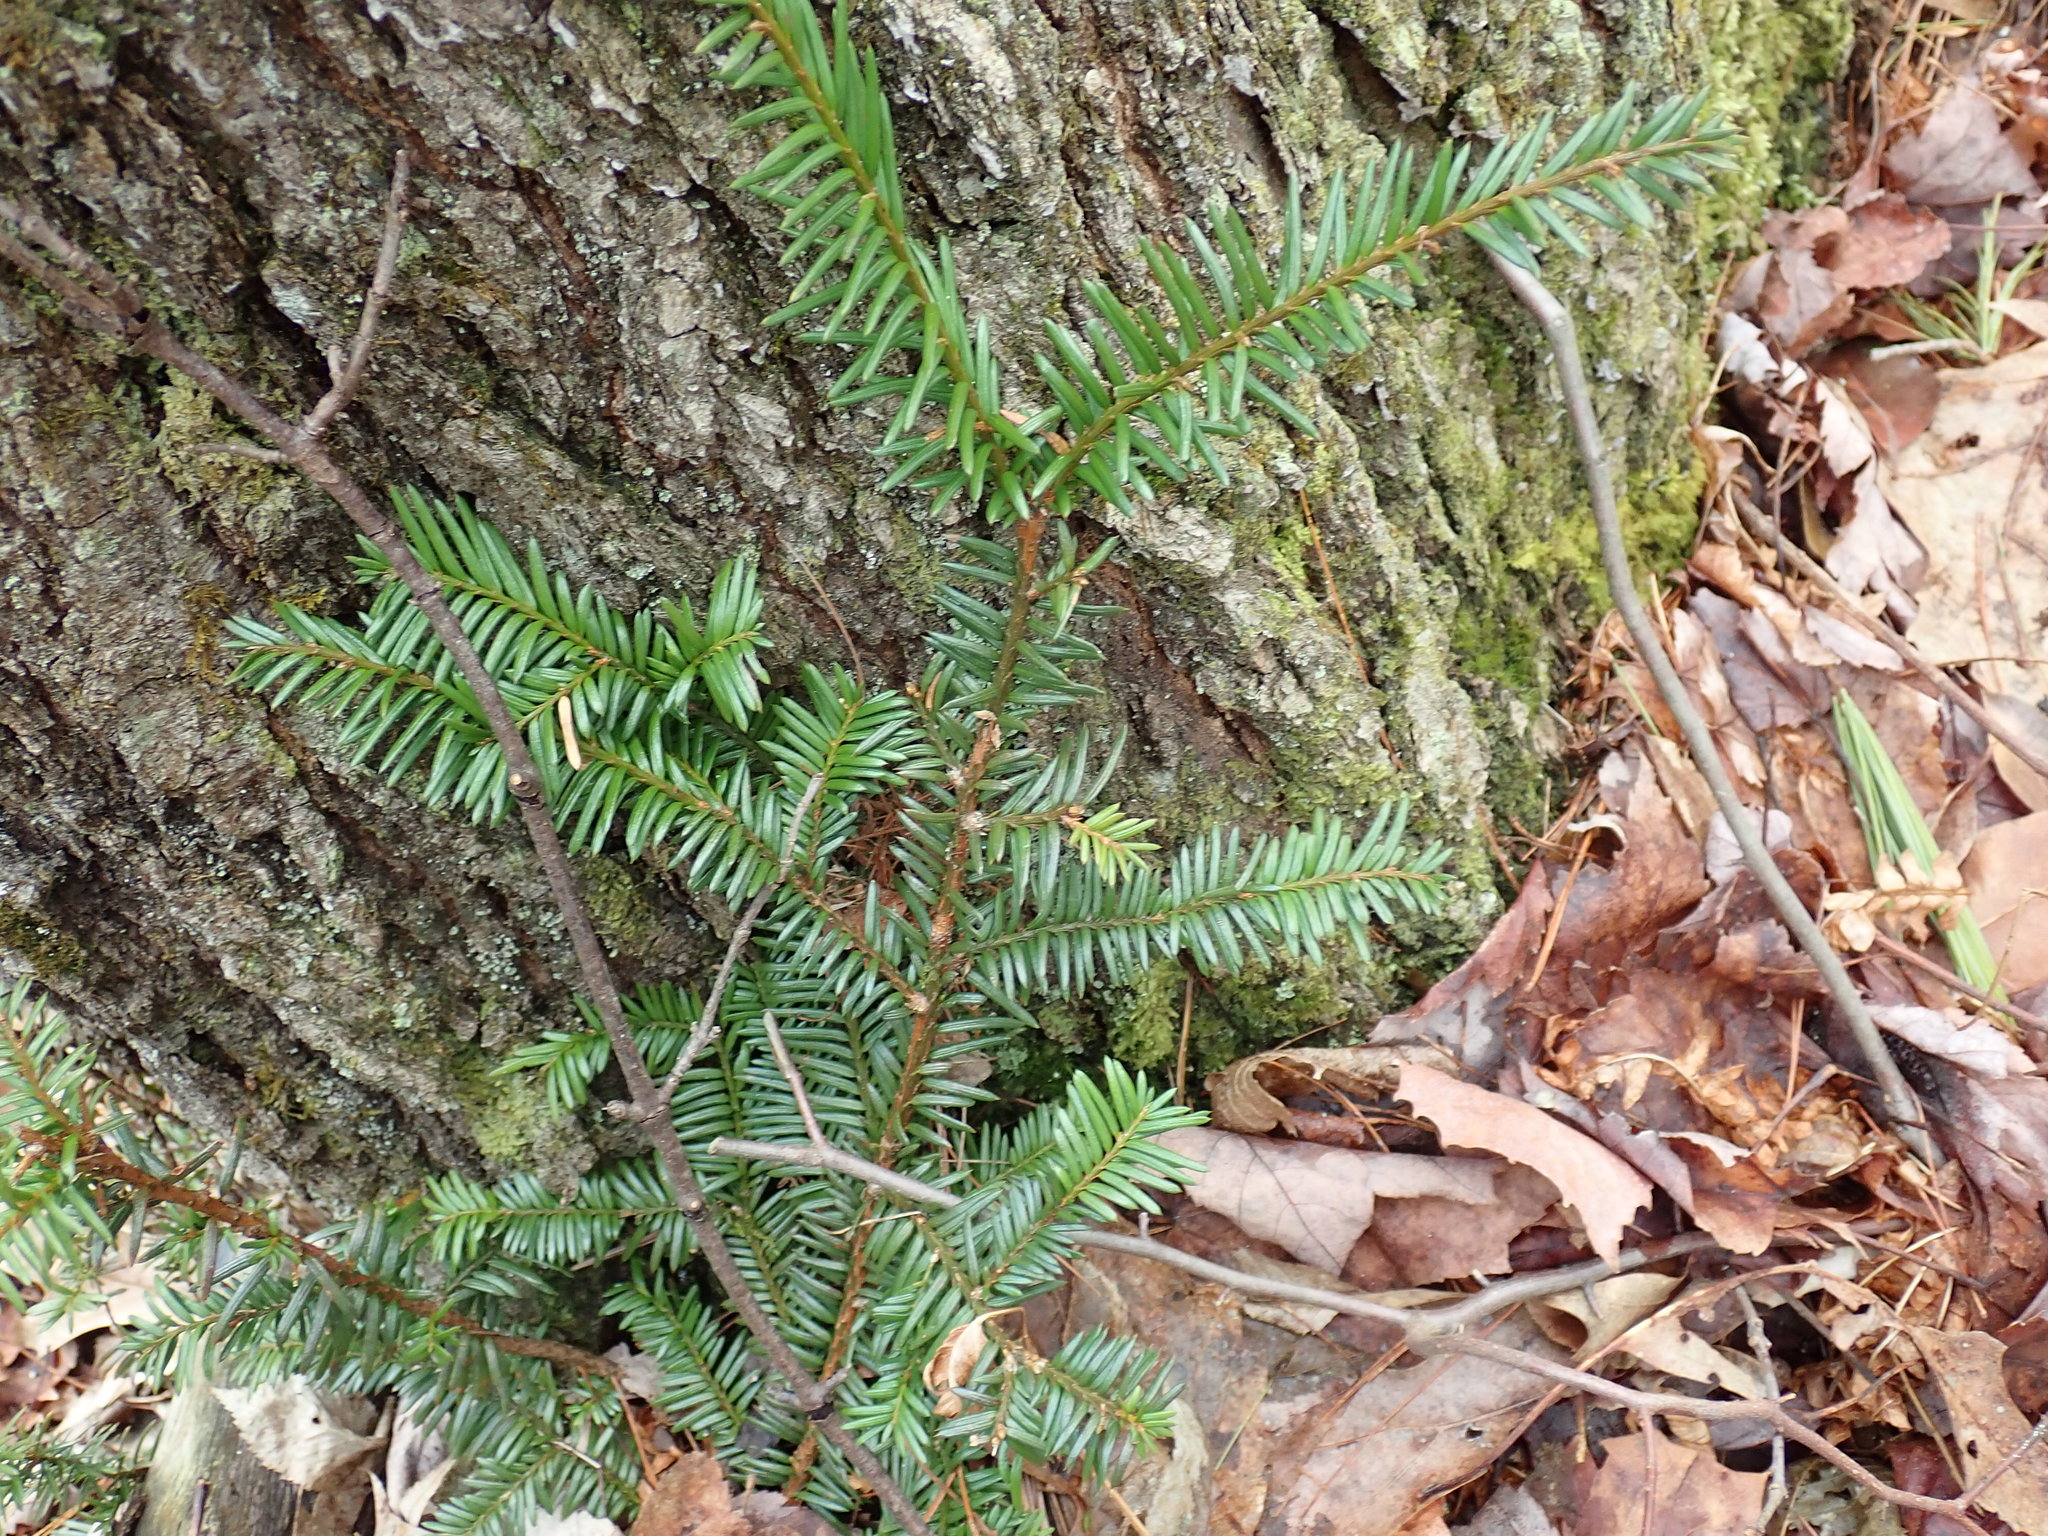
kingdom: Plantae
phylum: Tracheophyta
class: Pinopsida
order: Pinales
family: Taxaceae
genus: Taxus
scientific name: Taxus canadensis
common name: American yew
